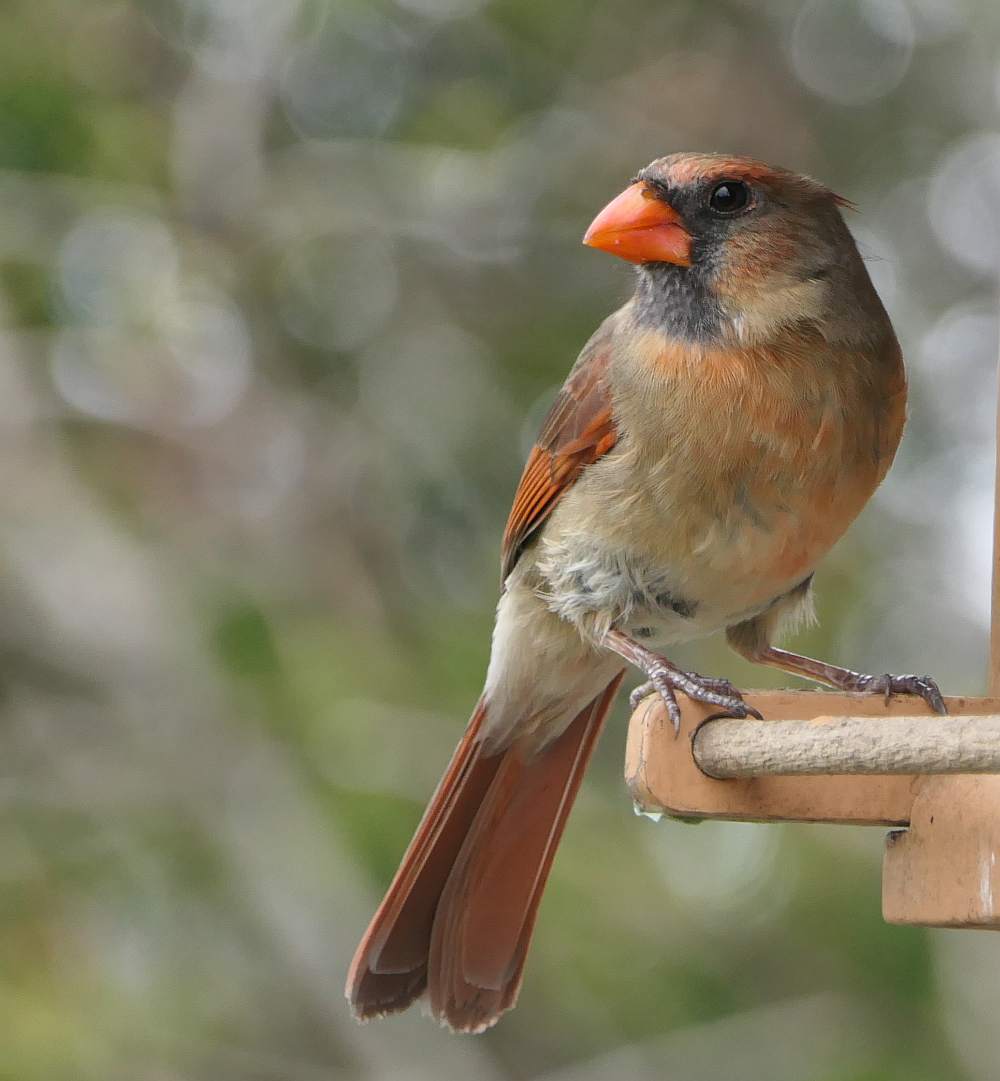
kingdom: Animalia
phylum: Chordata
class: Aves
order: Passeriformes
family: Cardinalidae
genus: Cardinalis
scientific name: Cardinalis cardinalis
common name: Northern cardinal
